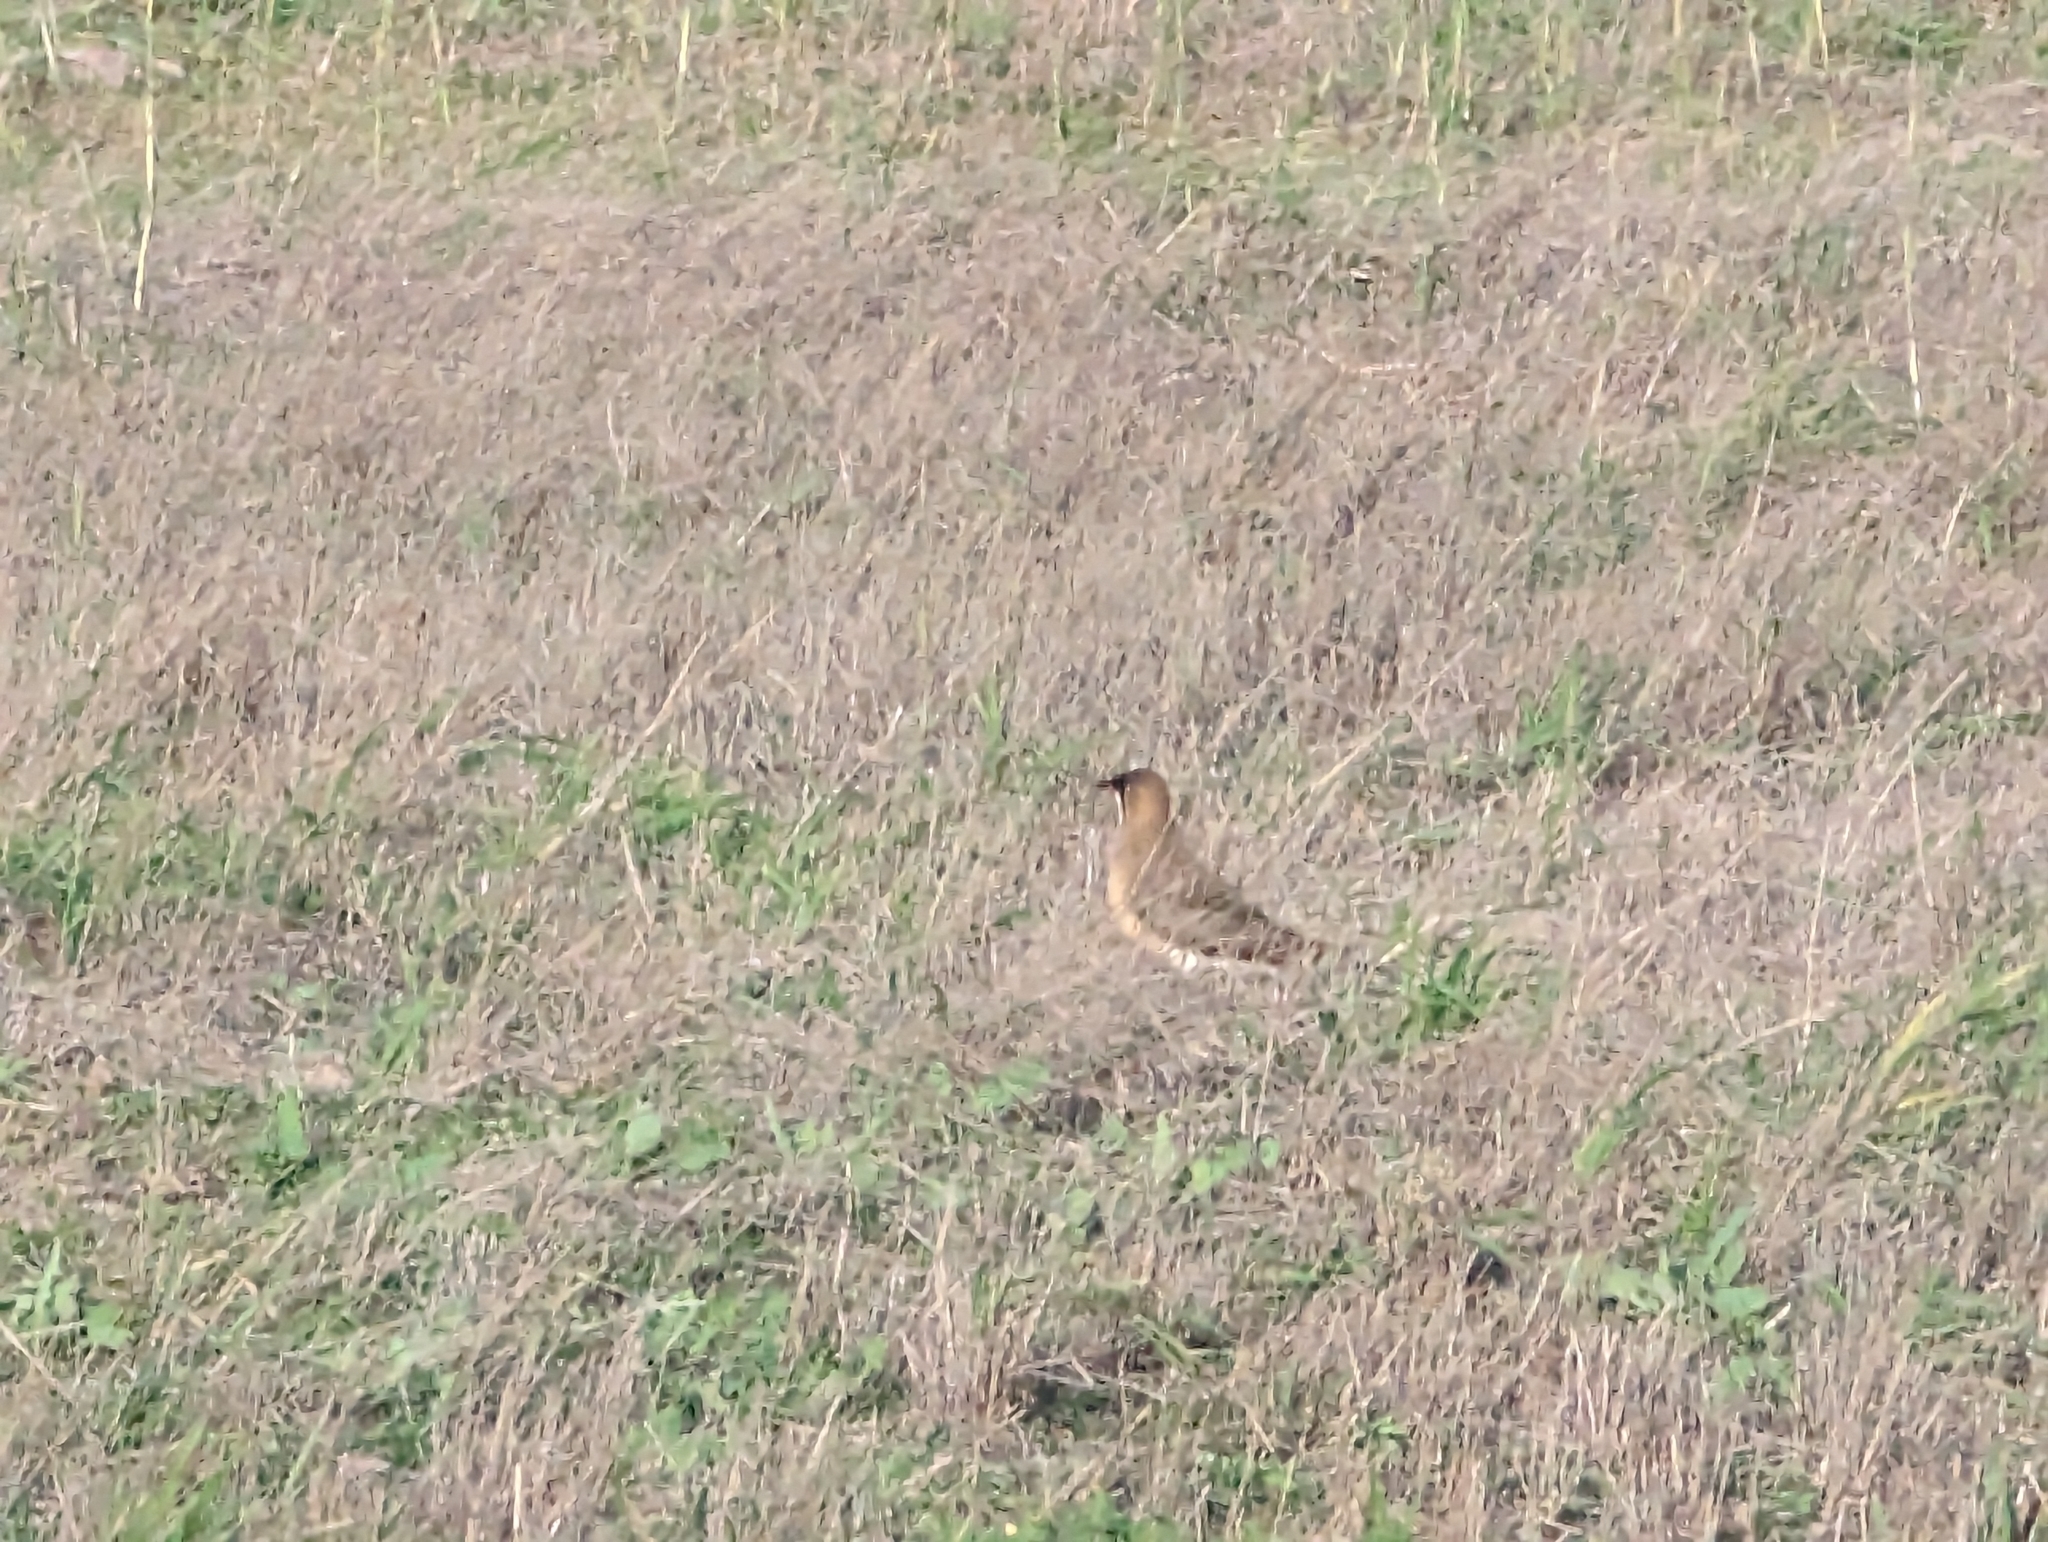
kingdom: Animalia
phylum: Chordata
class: Aves
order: Charadriiformes
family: Glareolidae
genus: Glareola
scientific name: Glareola maldivarum
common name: Oriental pratincole
